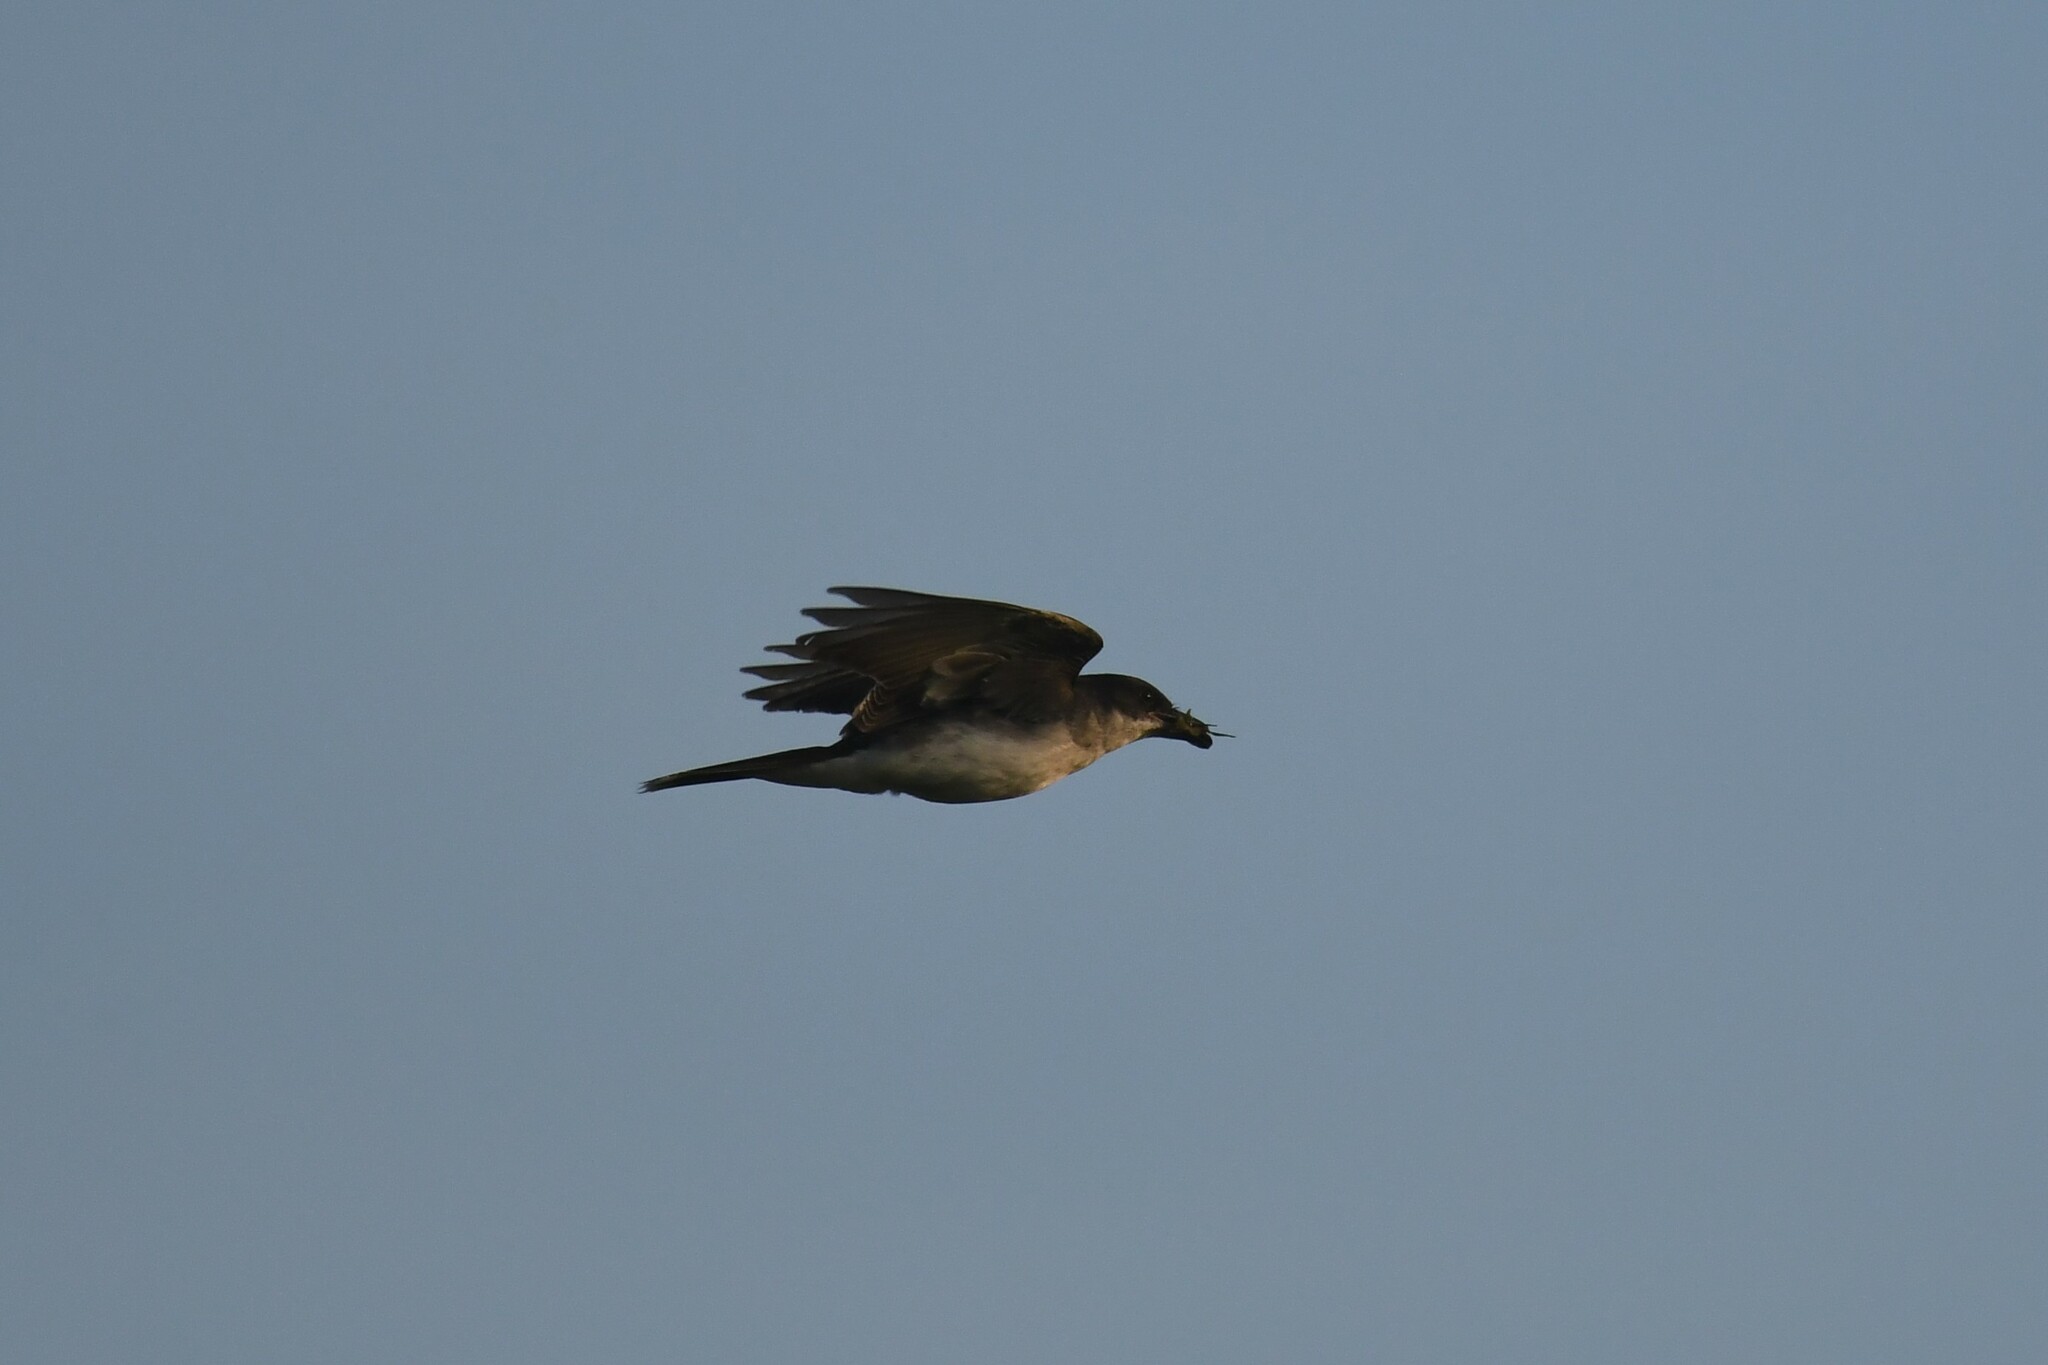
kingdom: Animalia
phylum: Chordata
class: Aves
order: Passeriformes
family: Tyrannidae
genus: Tyrannus
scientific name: Tyrannus tyrannus
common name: Eastern kingbird
